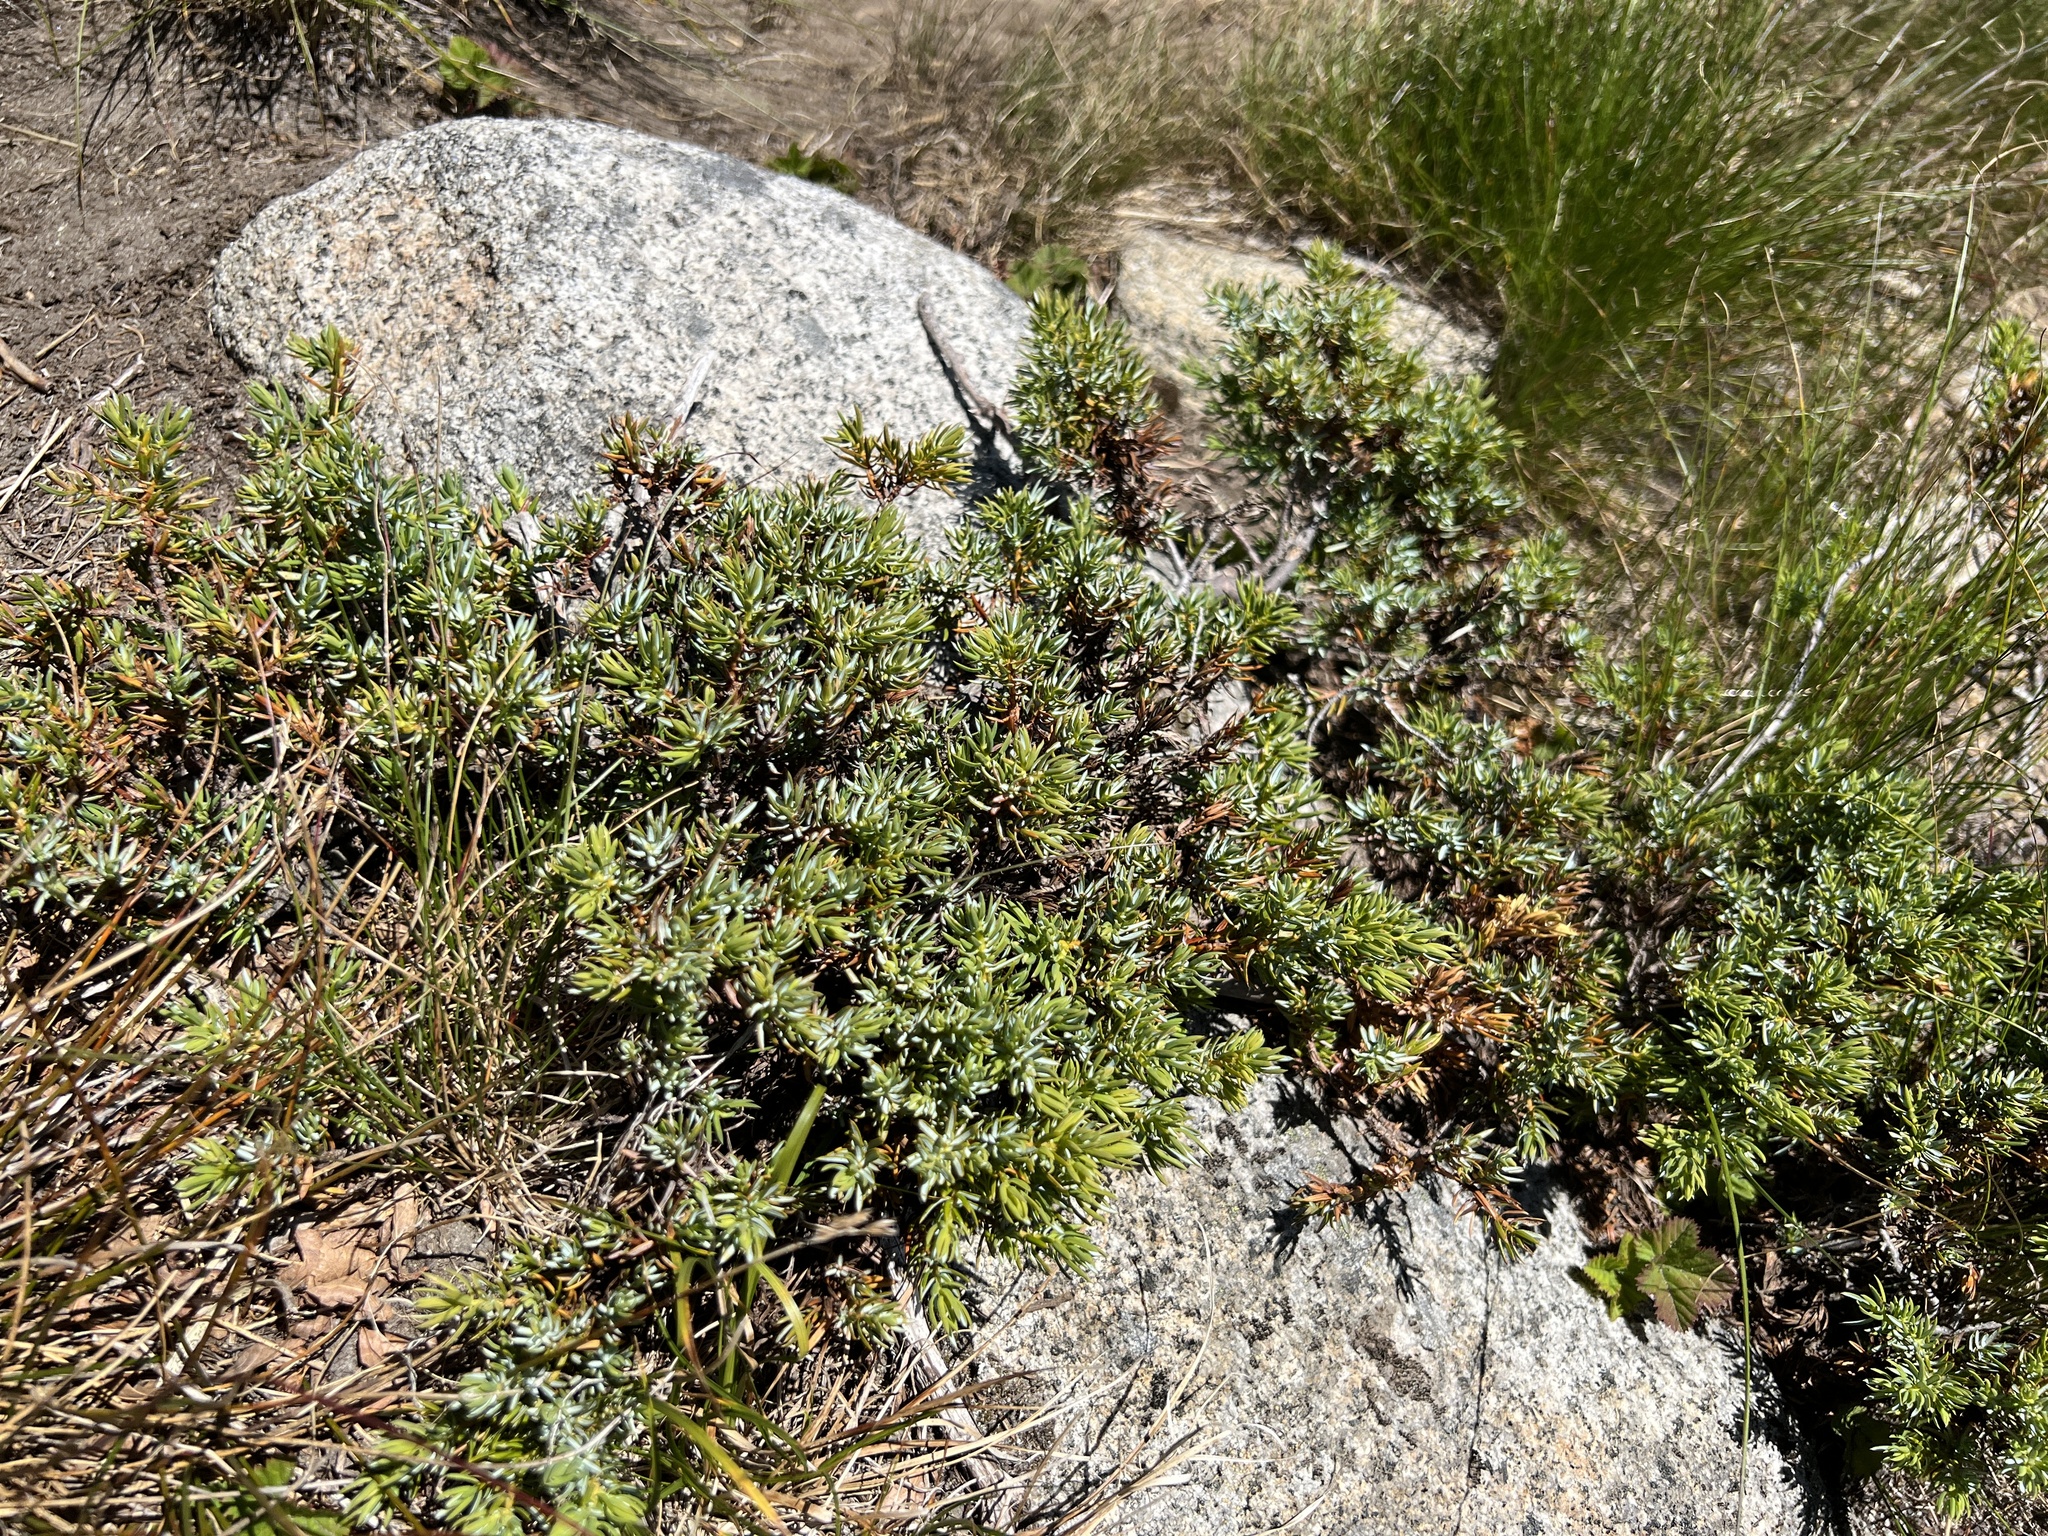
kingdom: Plantae
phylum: Tracheophyta
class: Pinopsida
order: Pinales
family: Cupressaceae
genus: Juniperus
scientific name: Juniperus communis
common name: Common juniper
